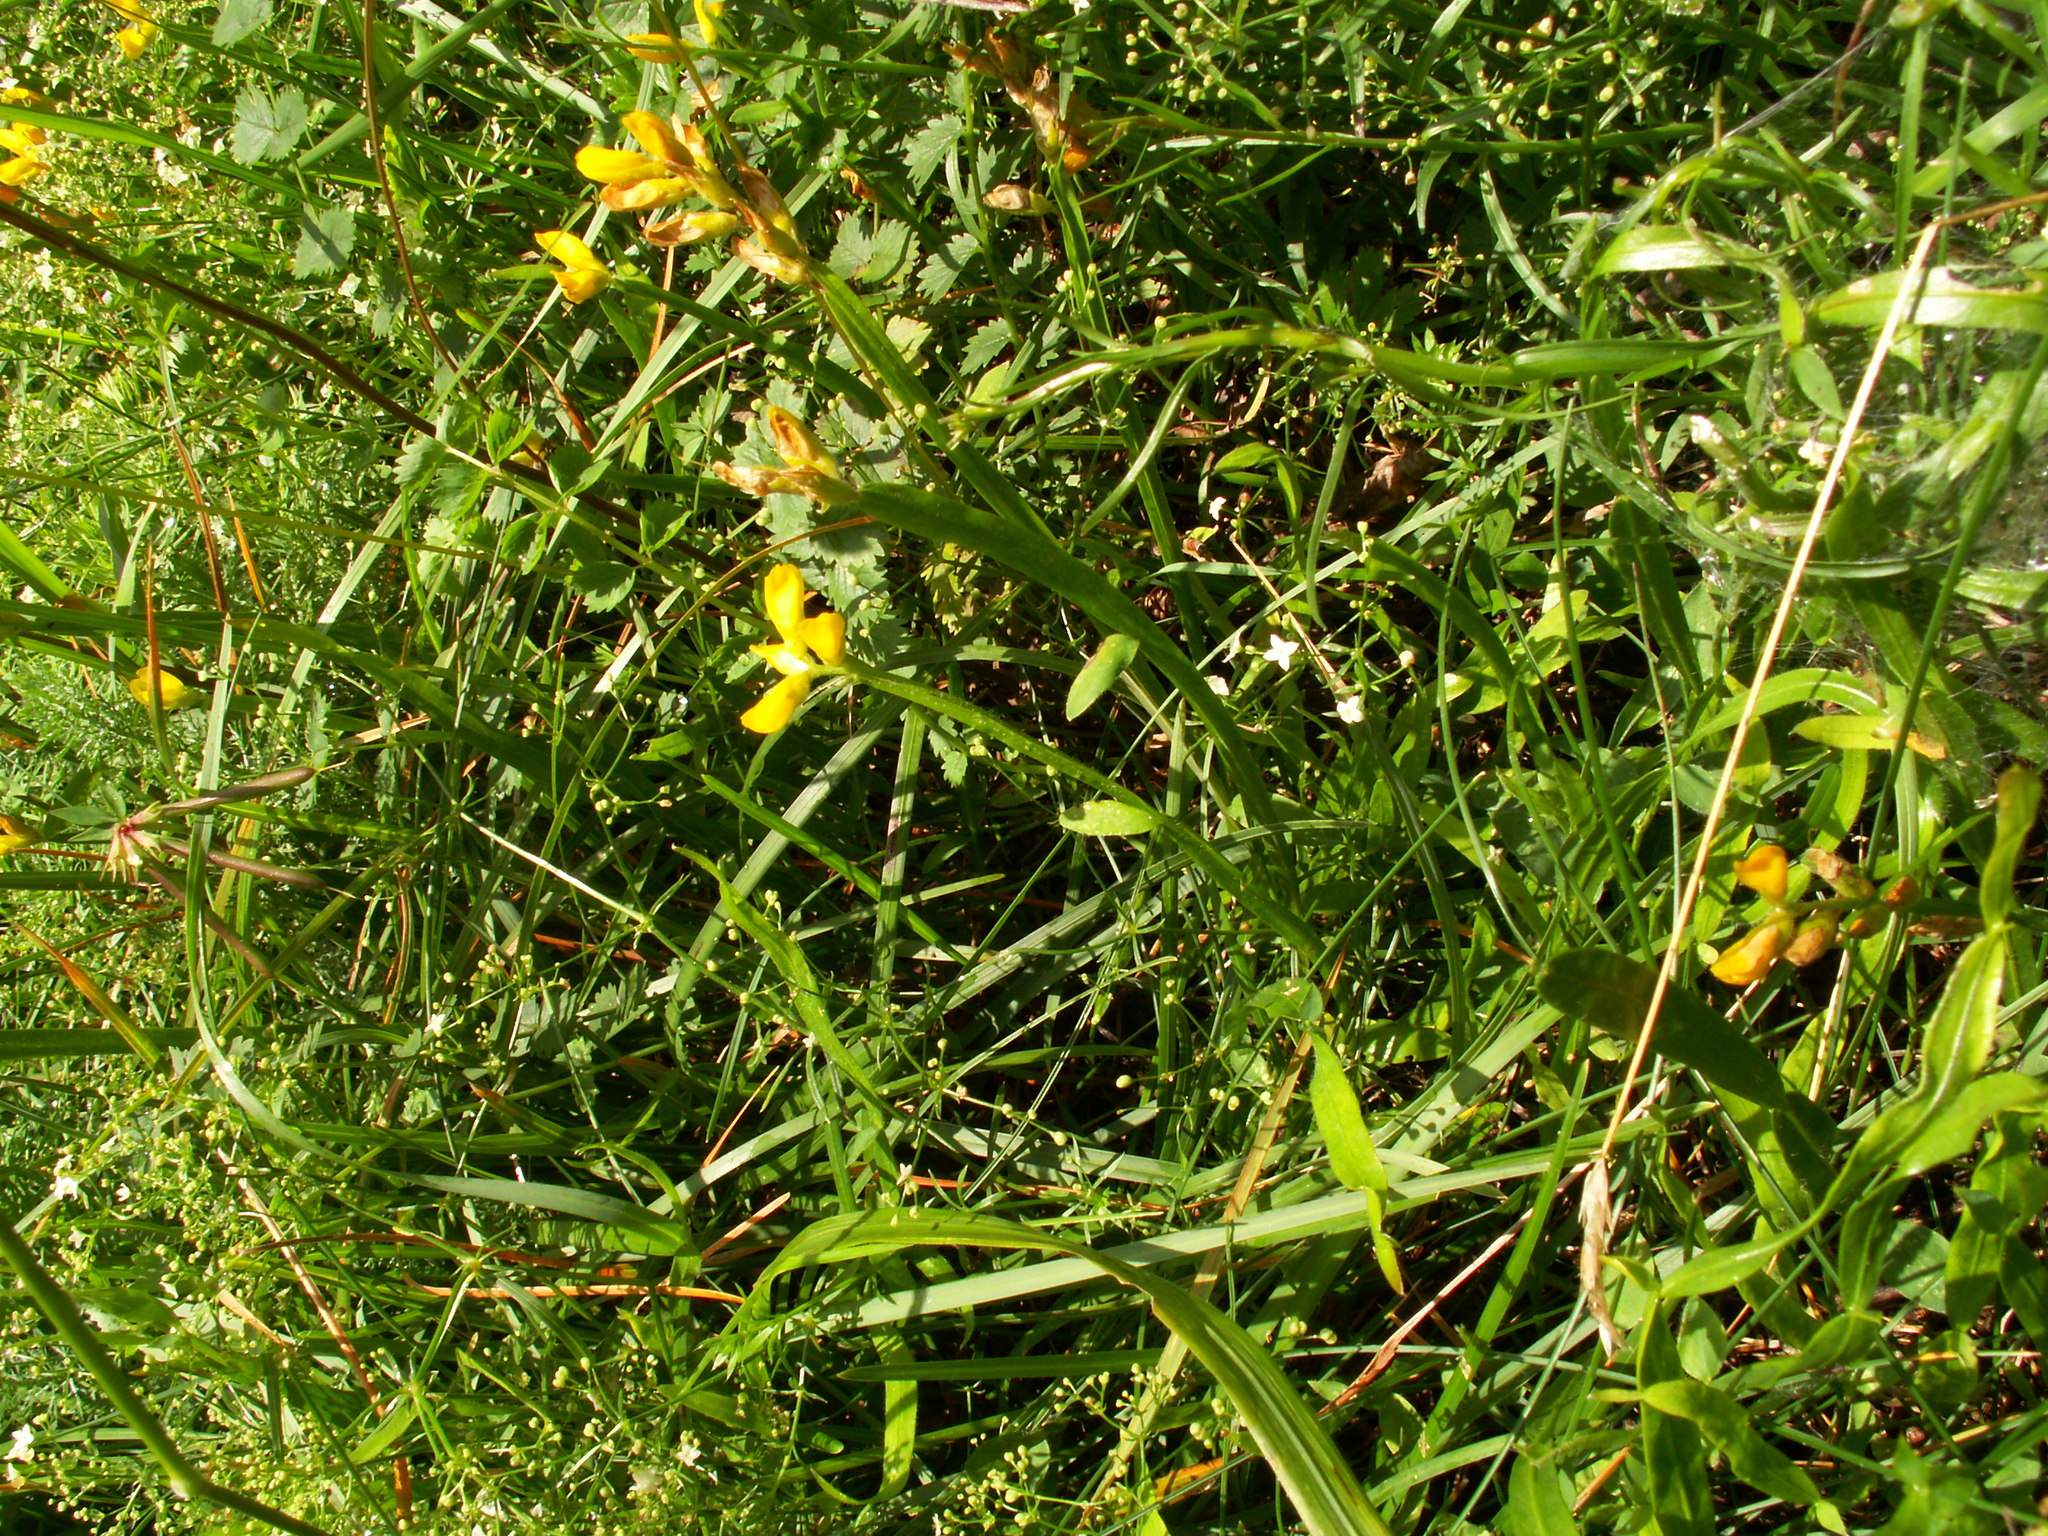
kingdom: Plantae
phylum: Tracheophyta
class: Magnoliopsida
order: Fabales
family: Fabaceae
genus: Genista
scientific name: Genista sagittalis
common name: Winged greenweed
